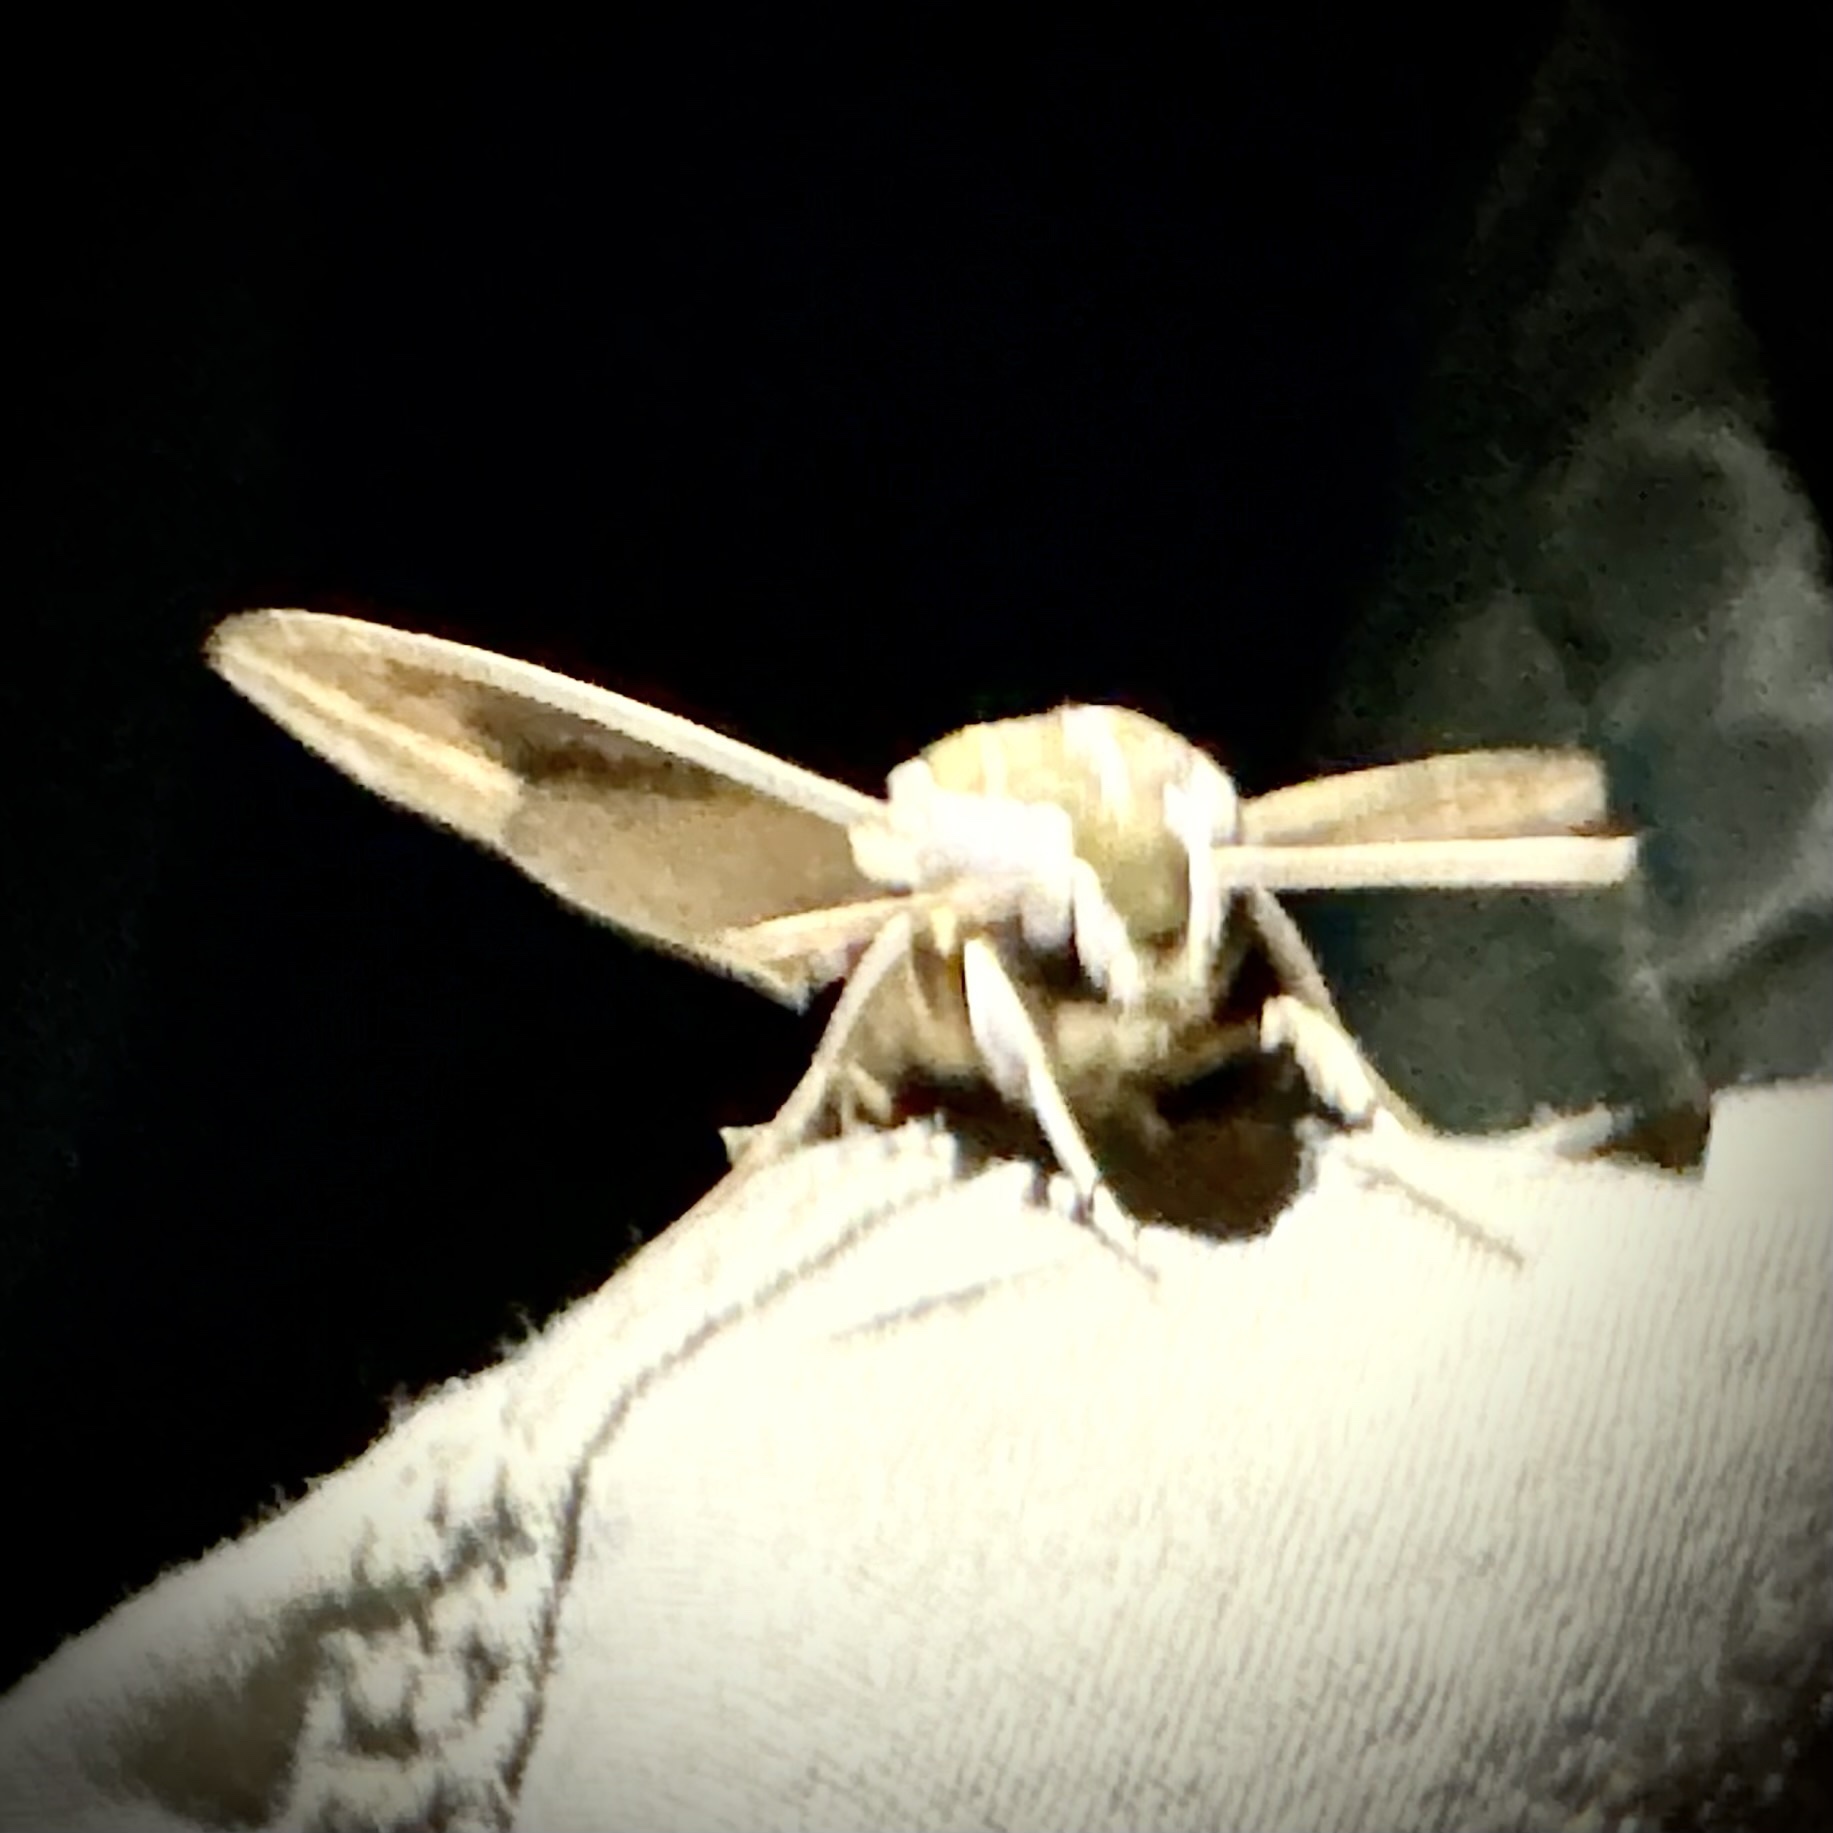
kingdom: Animalia
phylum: Arthropoda
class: Insecta
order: Lepidoptera
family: Sphingidae
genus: Hippotion
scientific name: Hippotion celerio
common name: Silver-striped hawk-moth
